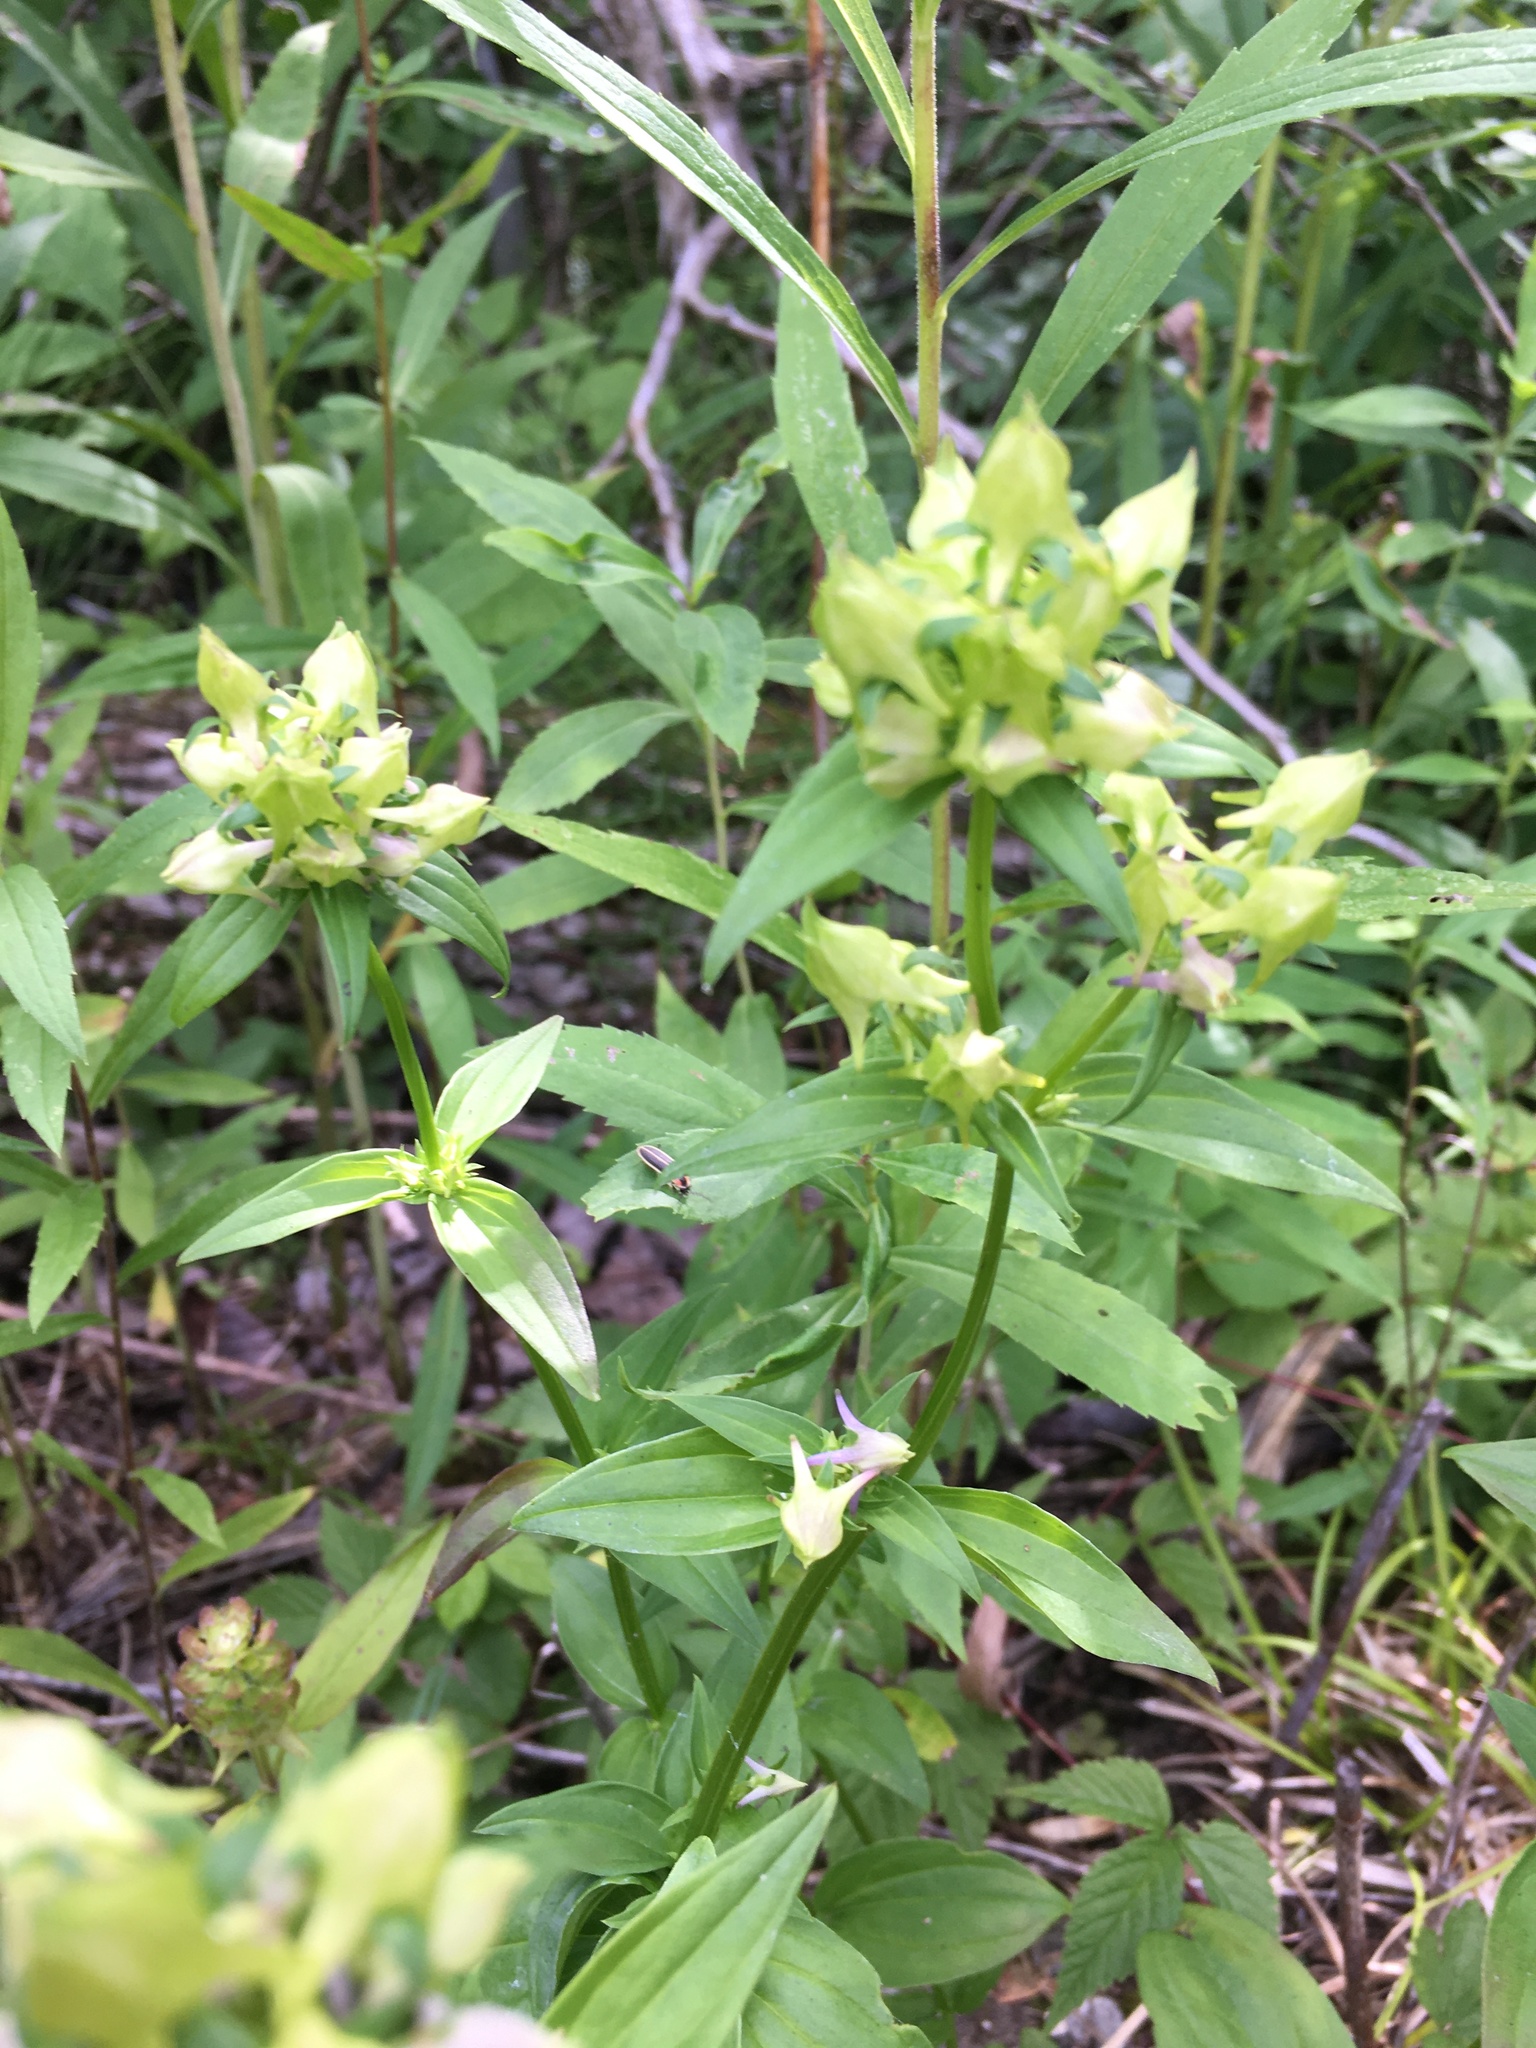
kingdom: Plantae
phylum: Tracheophyta
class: Magnoliopsida
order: Gentianales
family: Gentianaceae
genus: Halenia
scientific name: Halenia deflexa
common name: American spurred gentian
